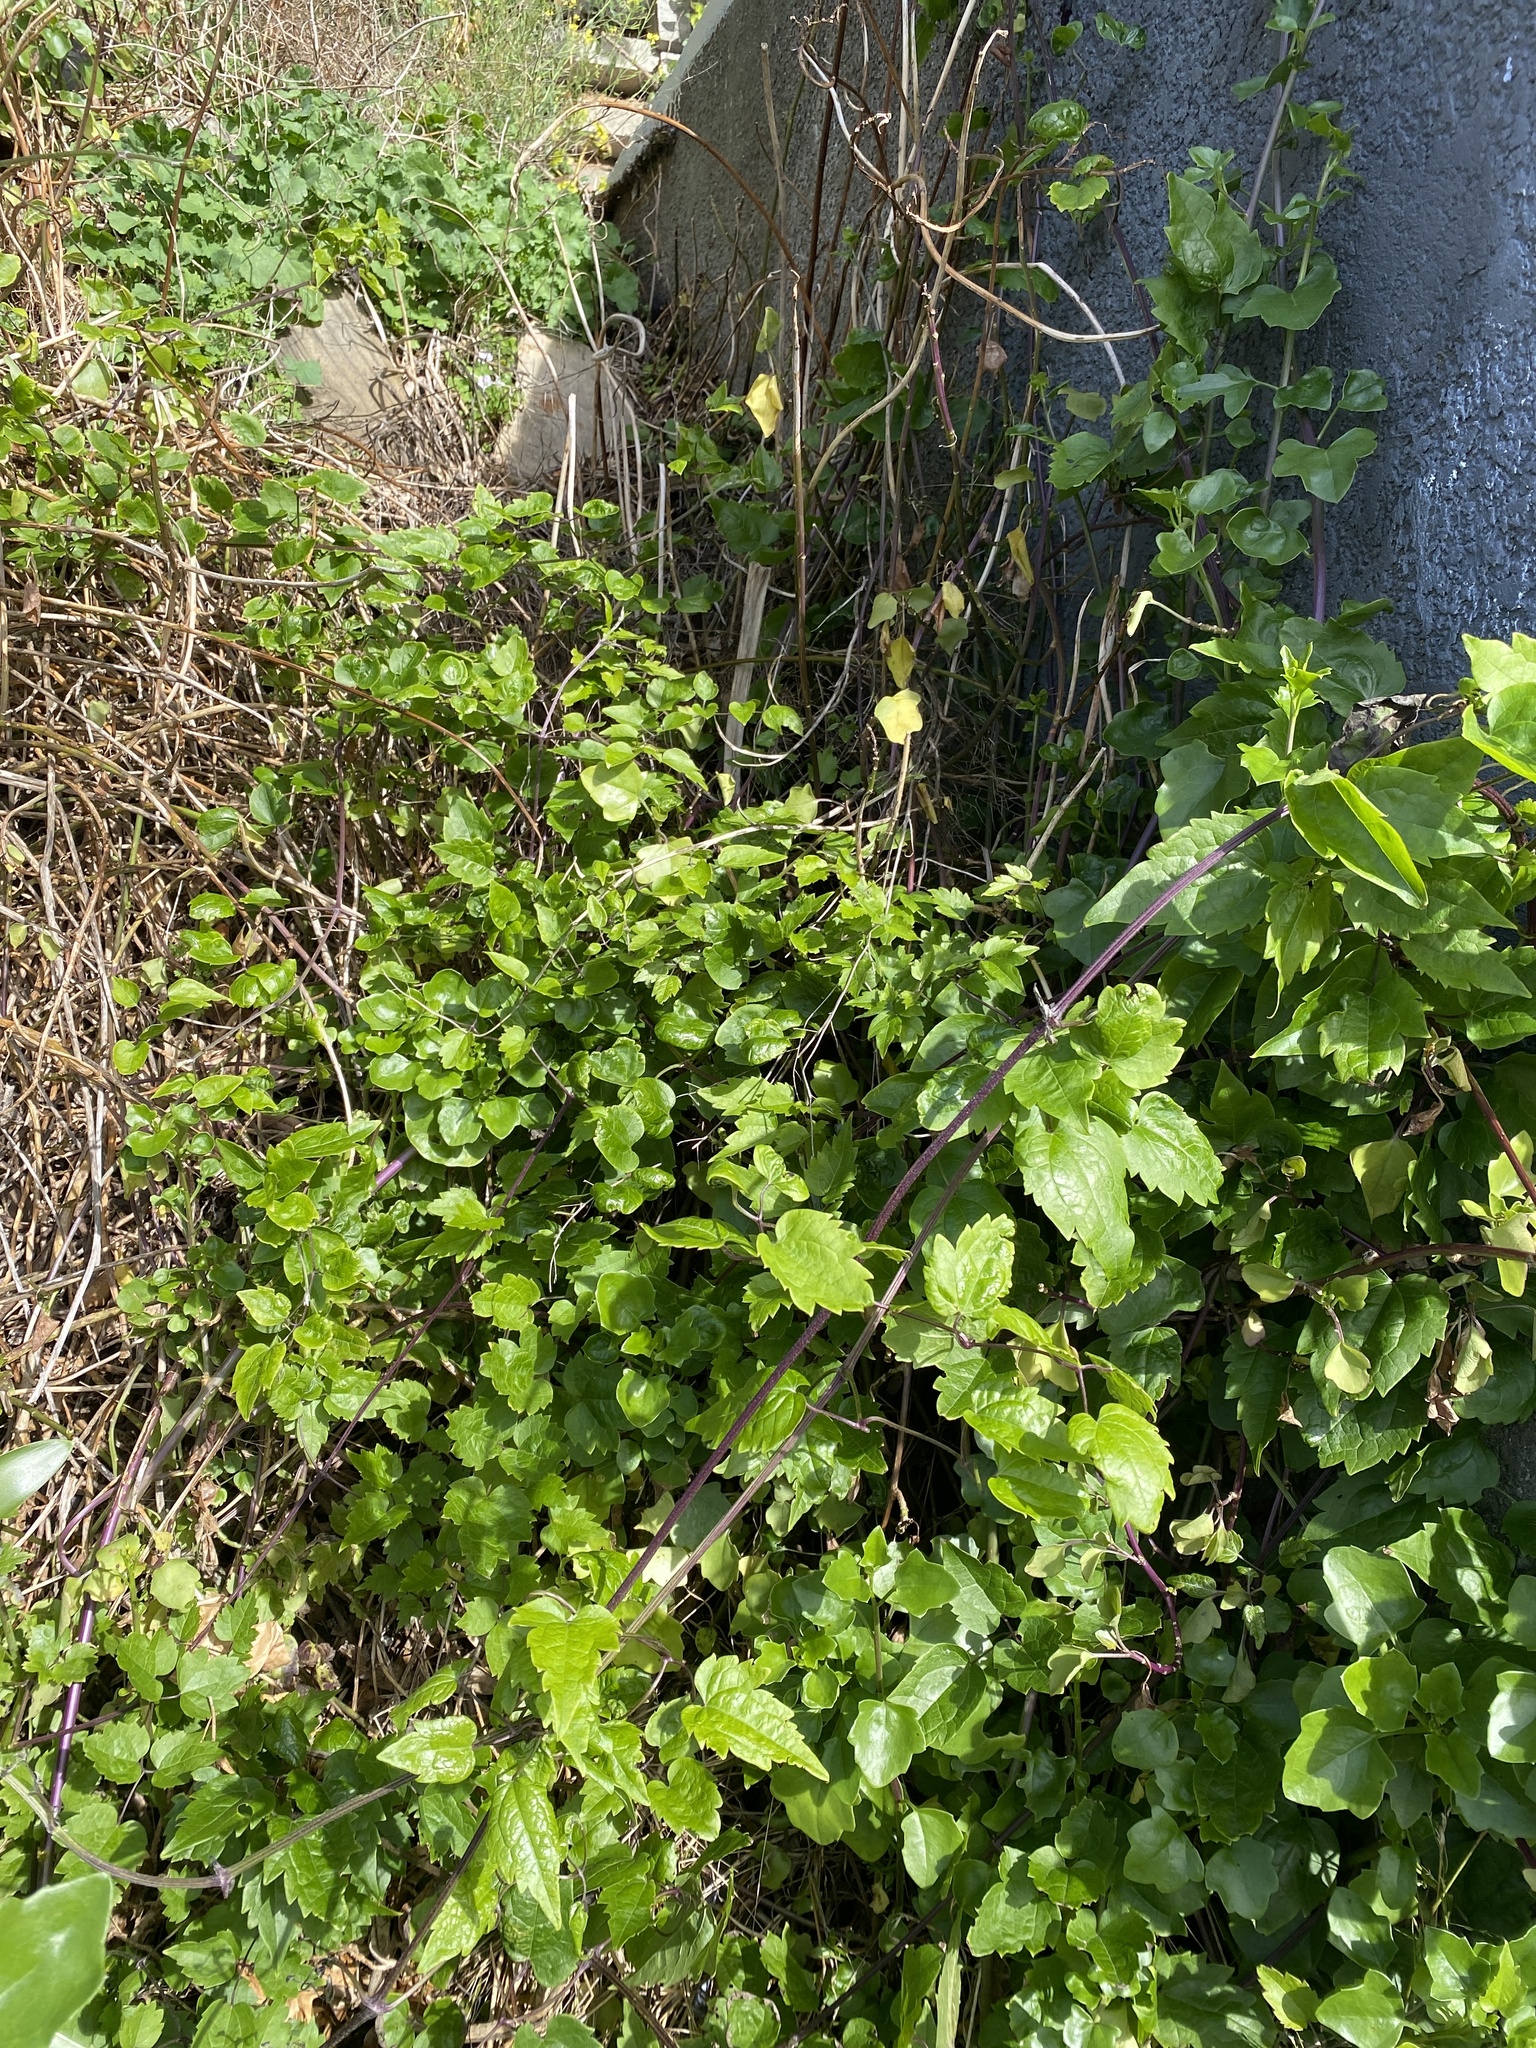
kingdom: Plantae
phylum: Tracheophyta
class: Magnoliopsida
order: Ranunculales
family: Ranunculaceae
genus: Clematis
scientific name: Clematis vitalba
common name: Evergreen clematis
